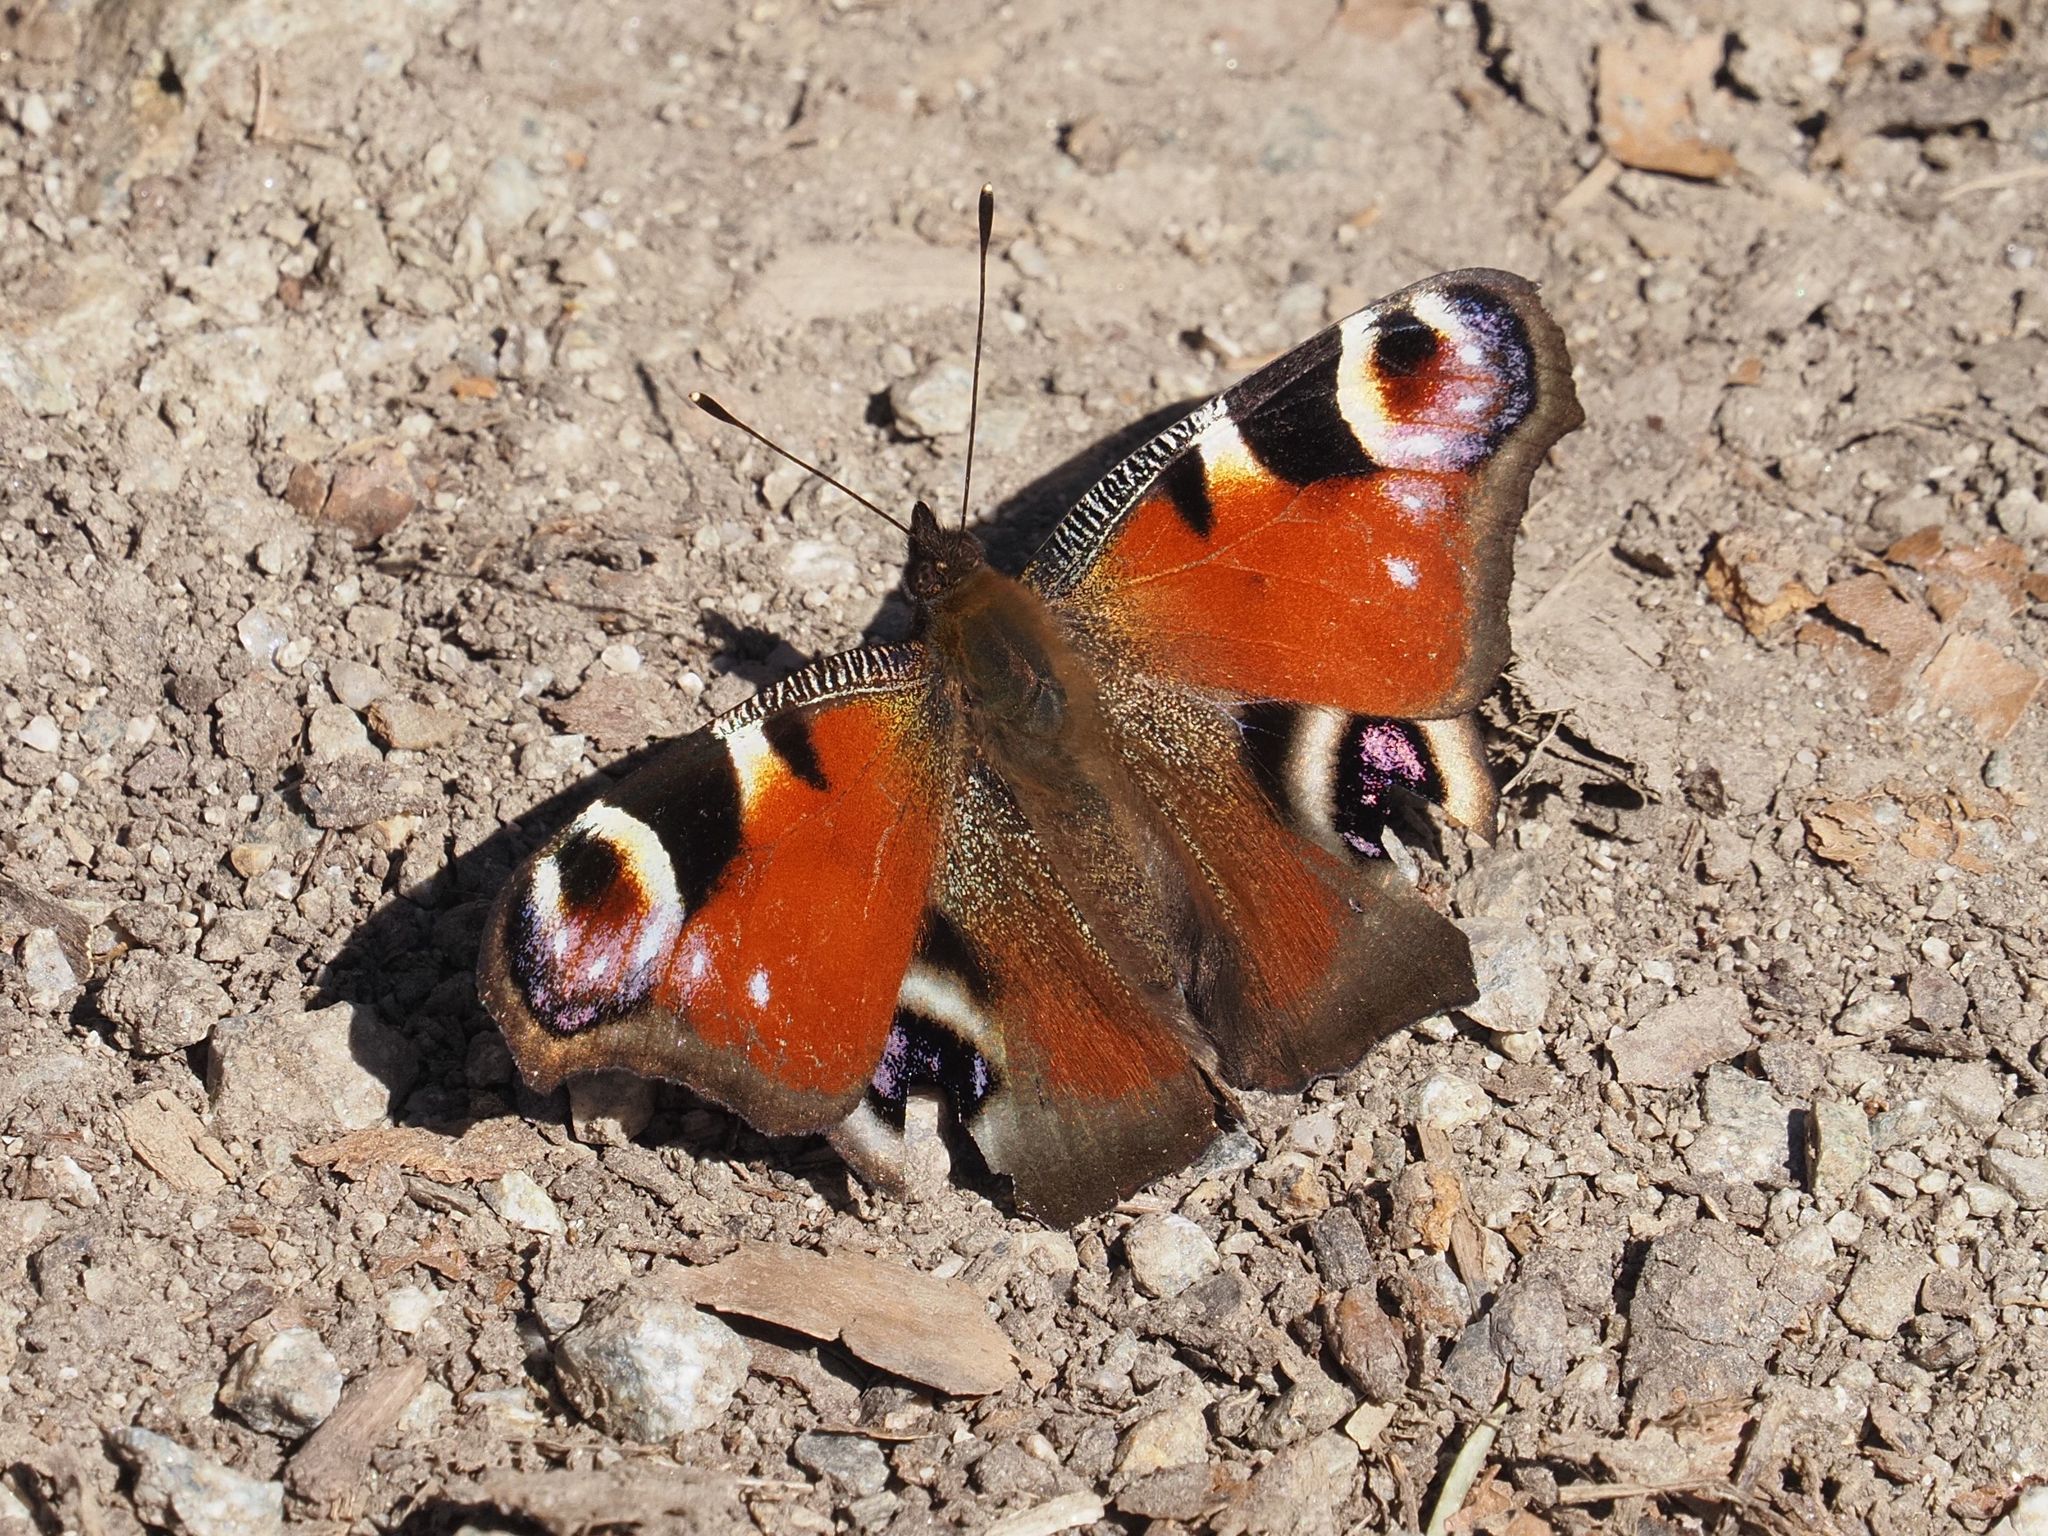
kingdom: Animalia
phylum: Arthropoda
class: Insecta
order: Lepidoptera
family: Nymphalidae
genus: Aglais
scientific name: Aglais io
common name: Peacock
